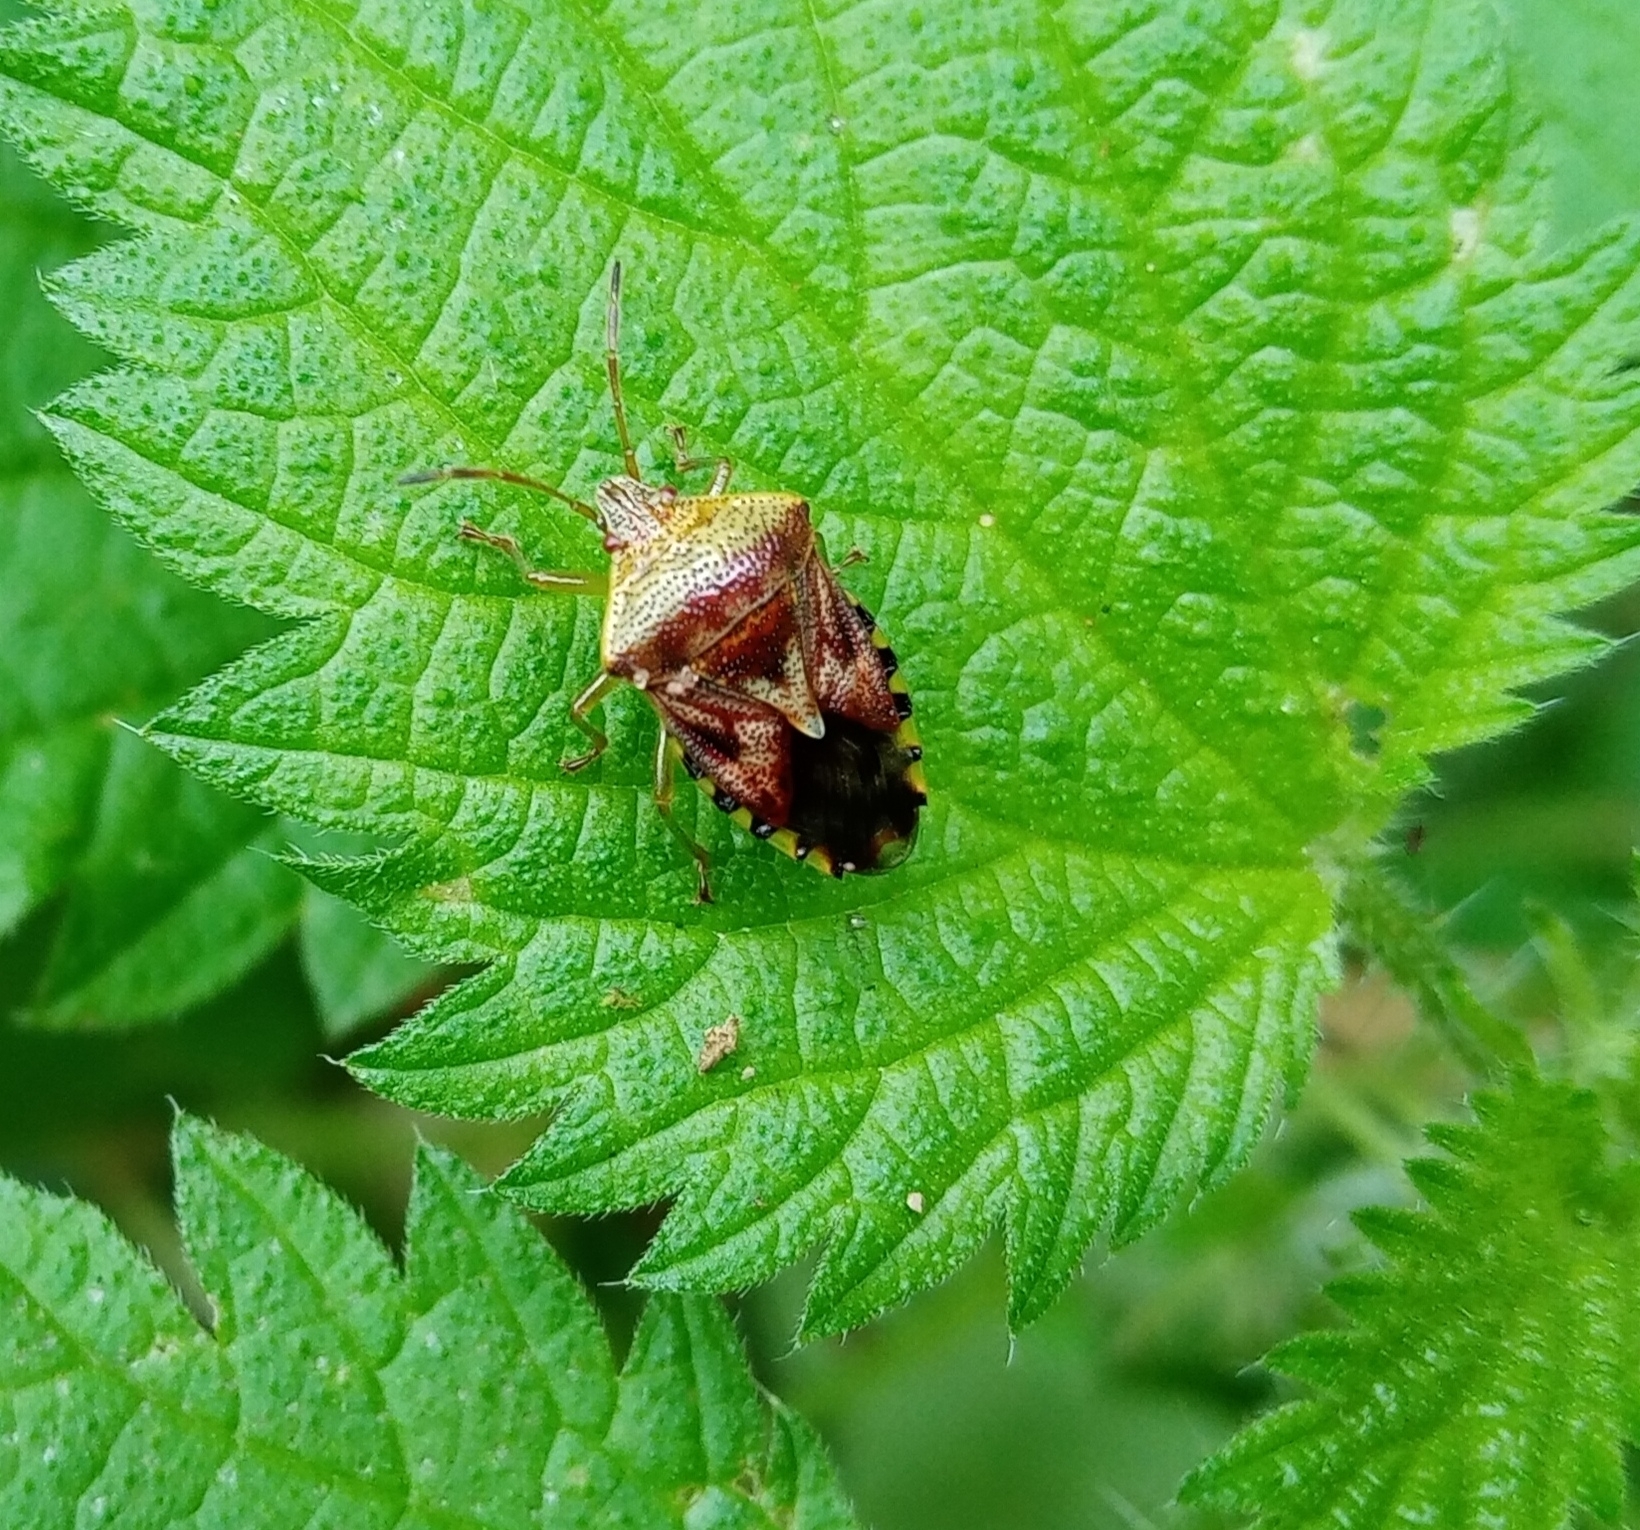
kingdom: Animalia
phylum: Arthropoda
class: Insecta
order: Hemiptera
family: Acanthosomatidae
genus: Elasmucha
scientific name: Elasmucha grisea
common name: Parent bug
